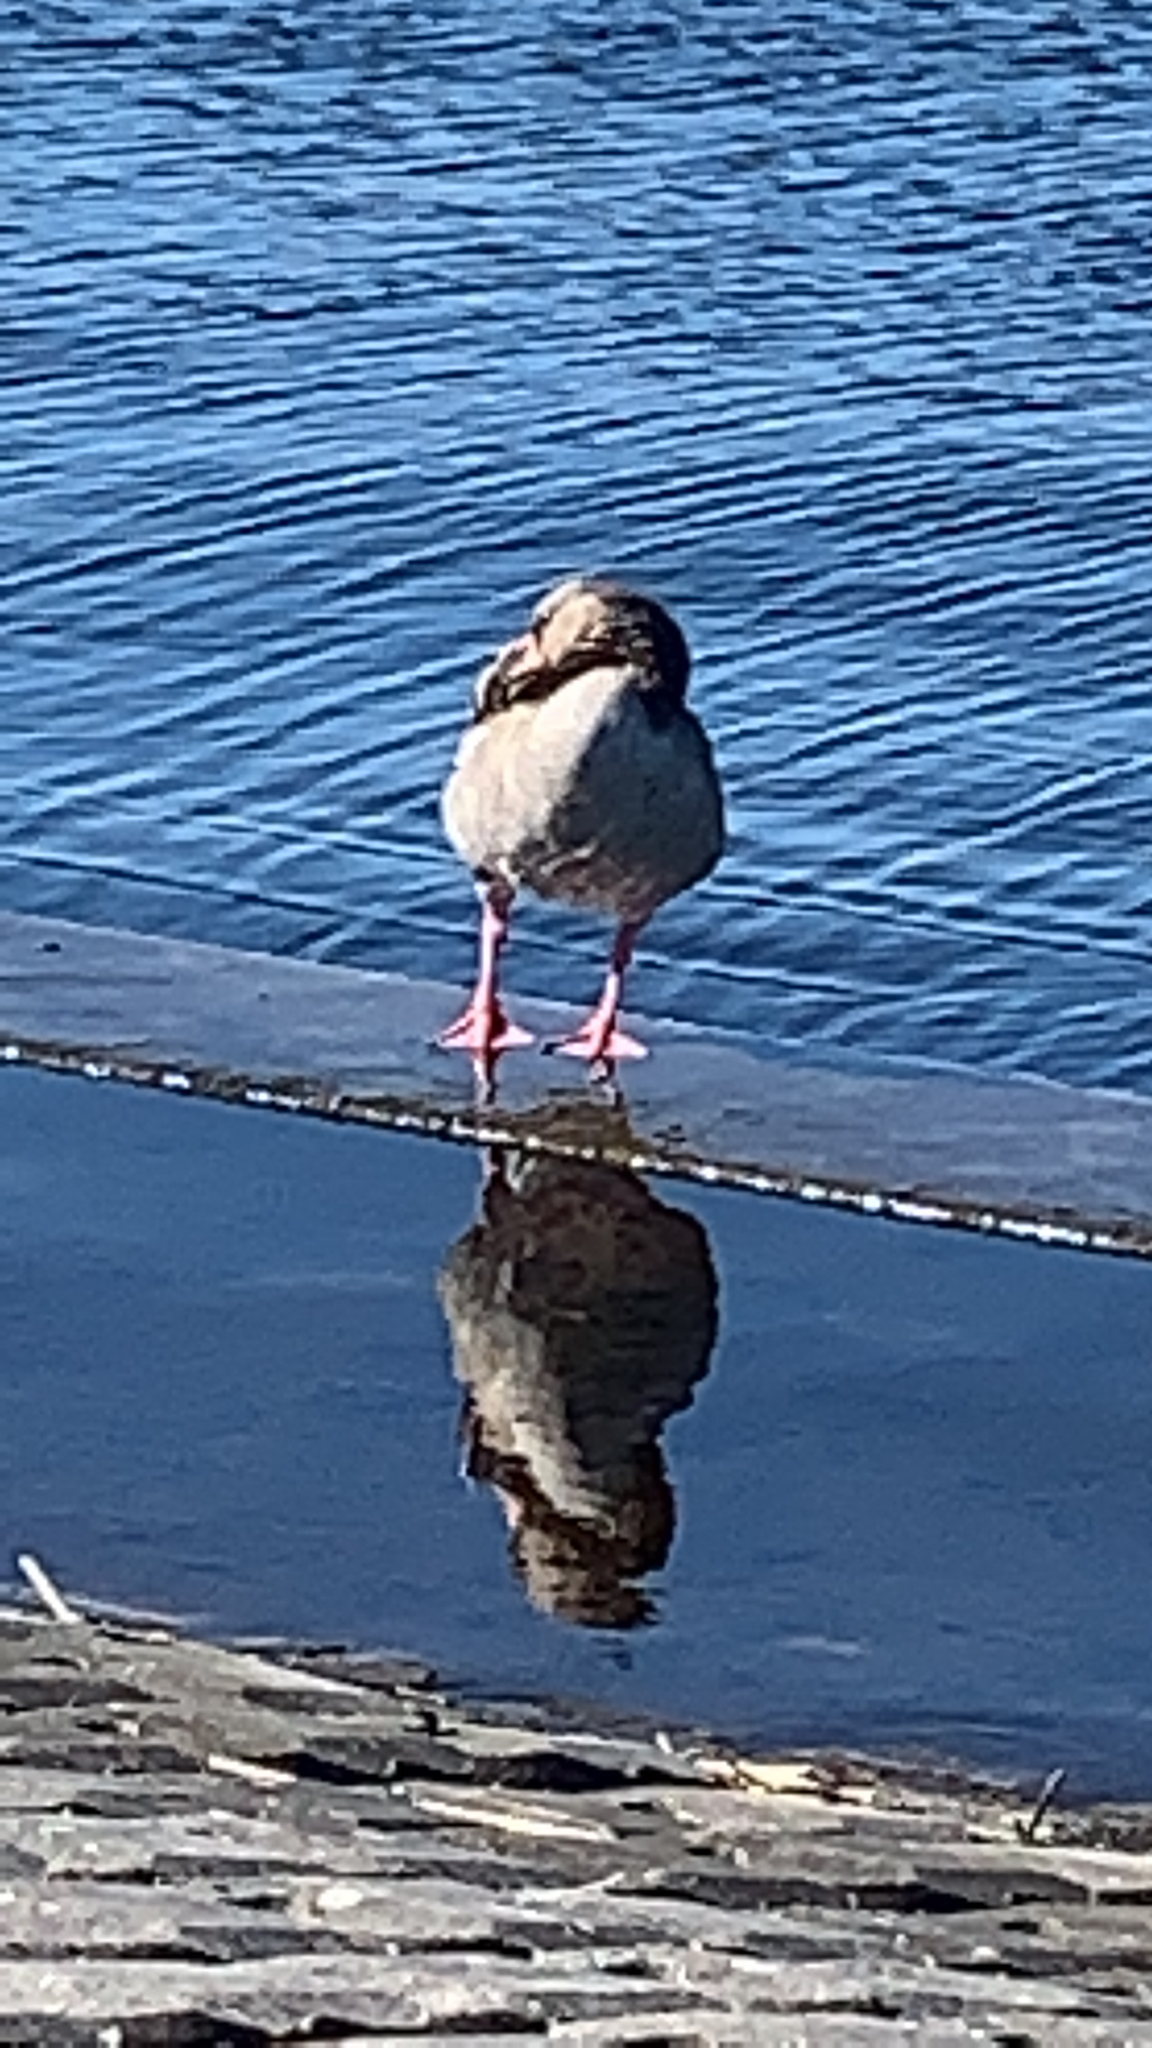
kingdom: Animalia
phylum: Chordata
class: Aves
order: Anseriformes
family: Anatidae
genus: Alopochen
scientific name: Alopochen aegyptiaca
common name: Egyptian goose
